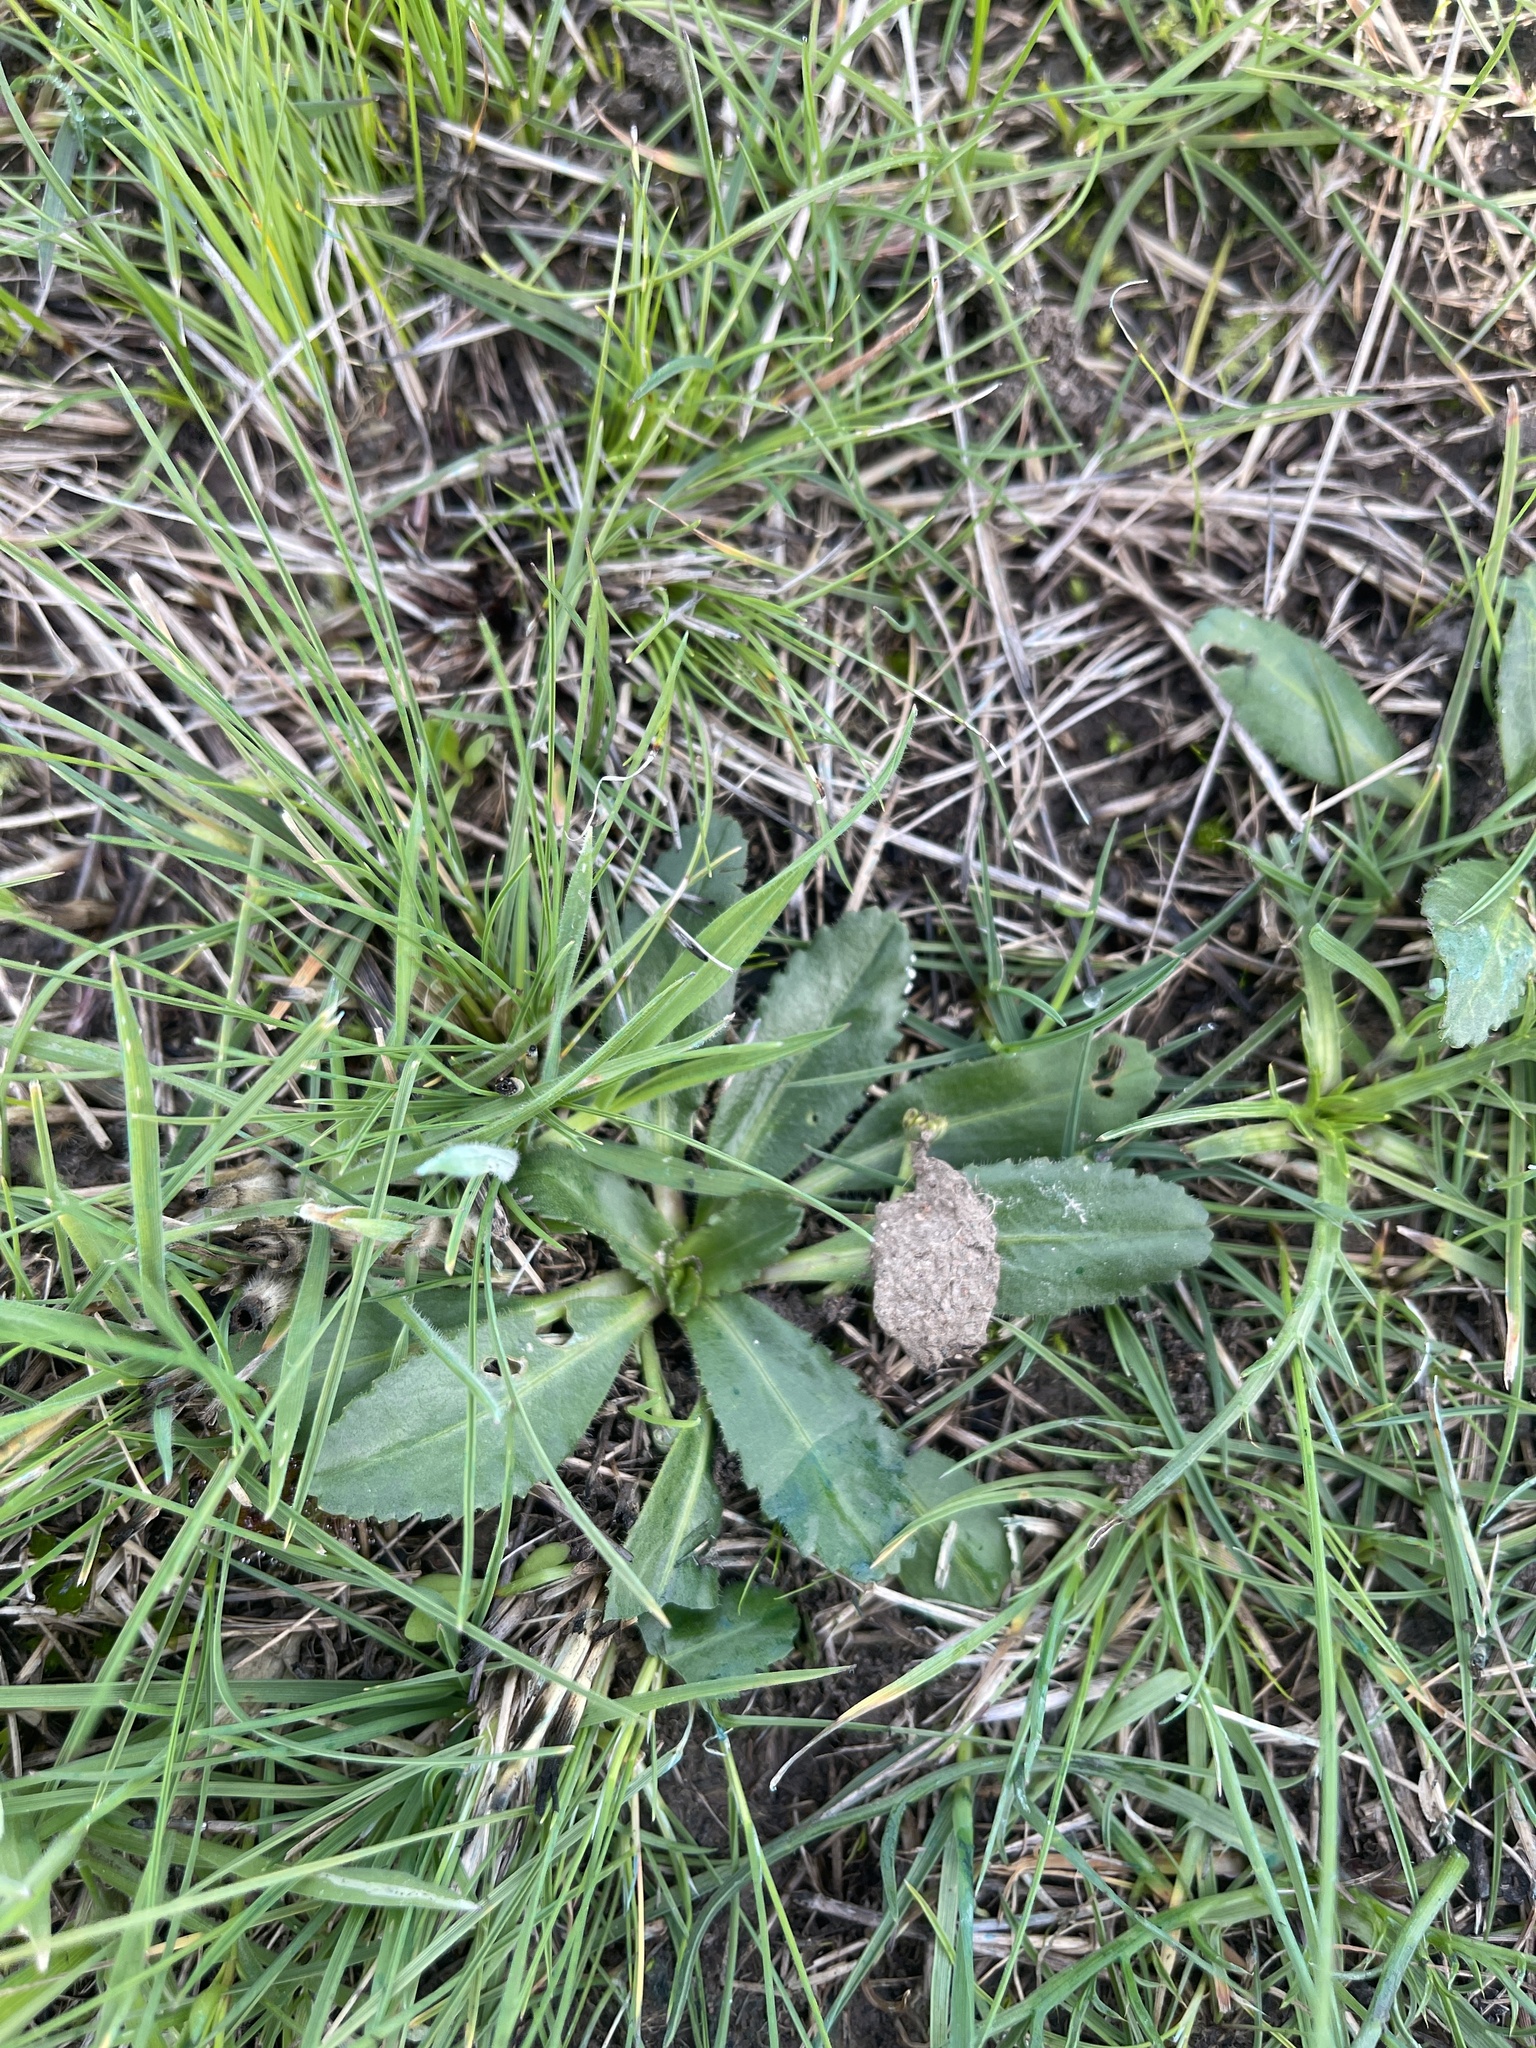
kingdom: Plantae
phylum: Tracheophyta
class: Magnoliopsida
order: Asterales
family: Asteraceae
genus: Solenogyne
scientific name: Solenogyne dominii
